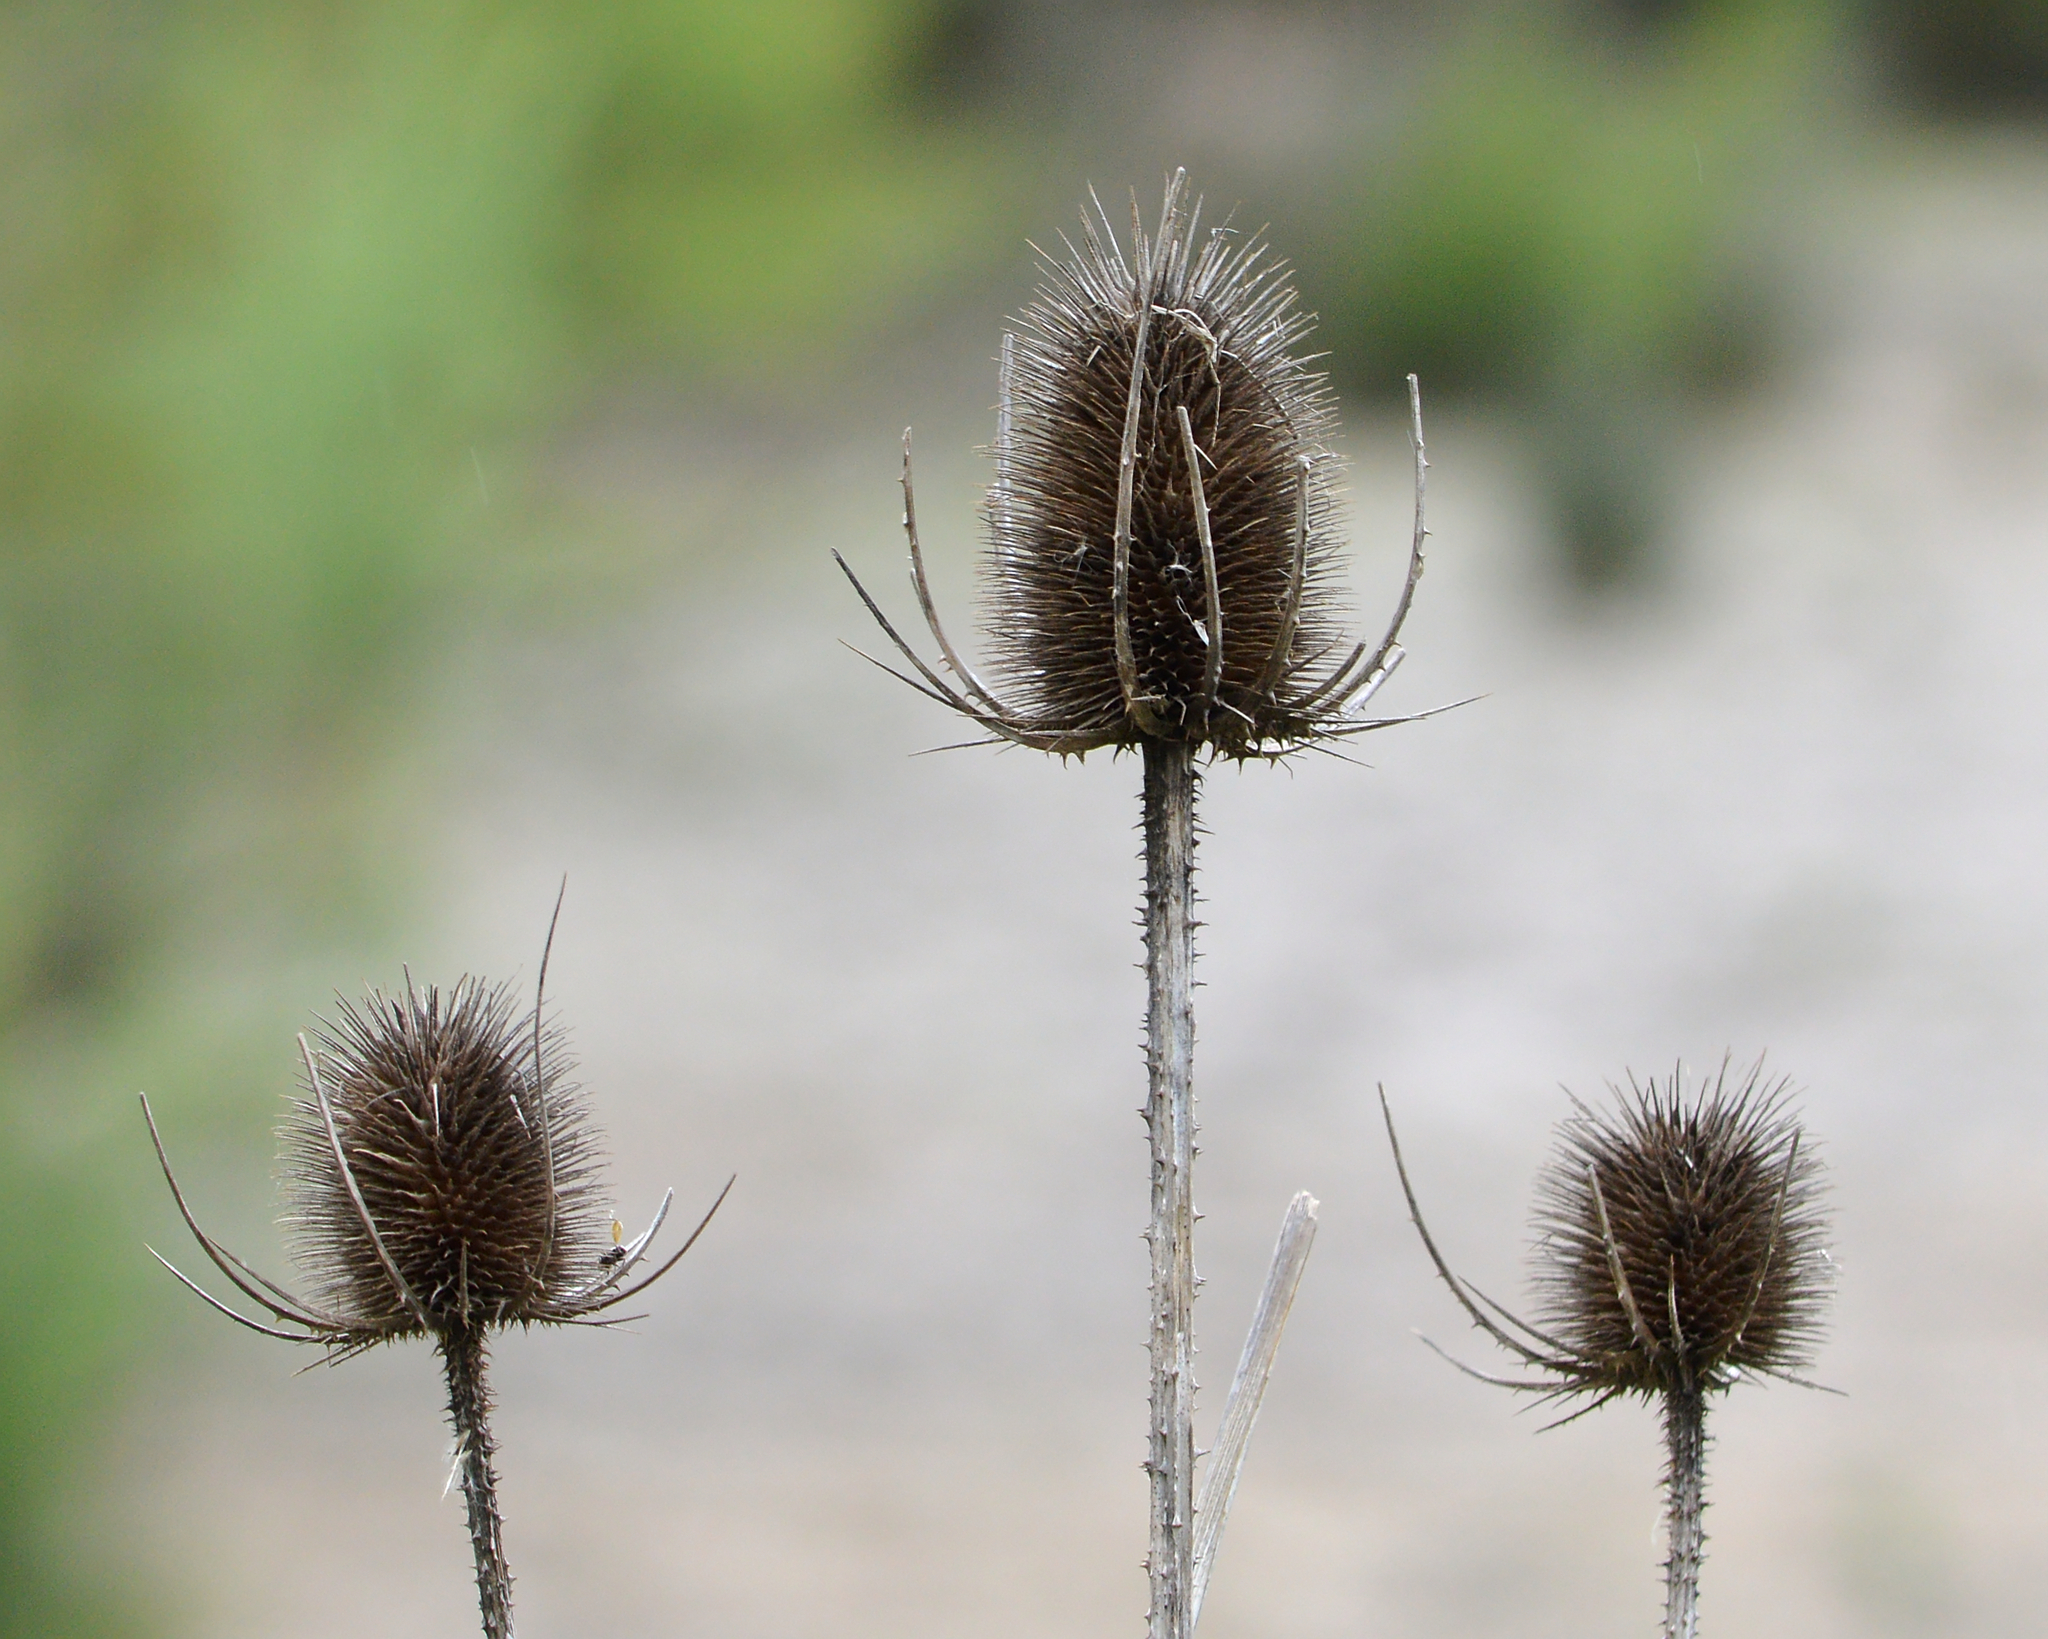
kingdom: Plantae
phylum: Tracheophyta
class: Magnoliopsida
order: Dipsacales
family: Caprifoliaceae
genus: Dipsacus
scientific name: Dipsacus fullonum
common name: Teasel
